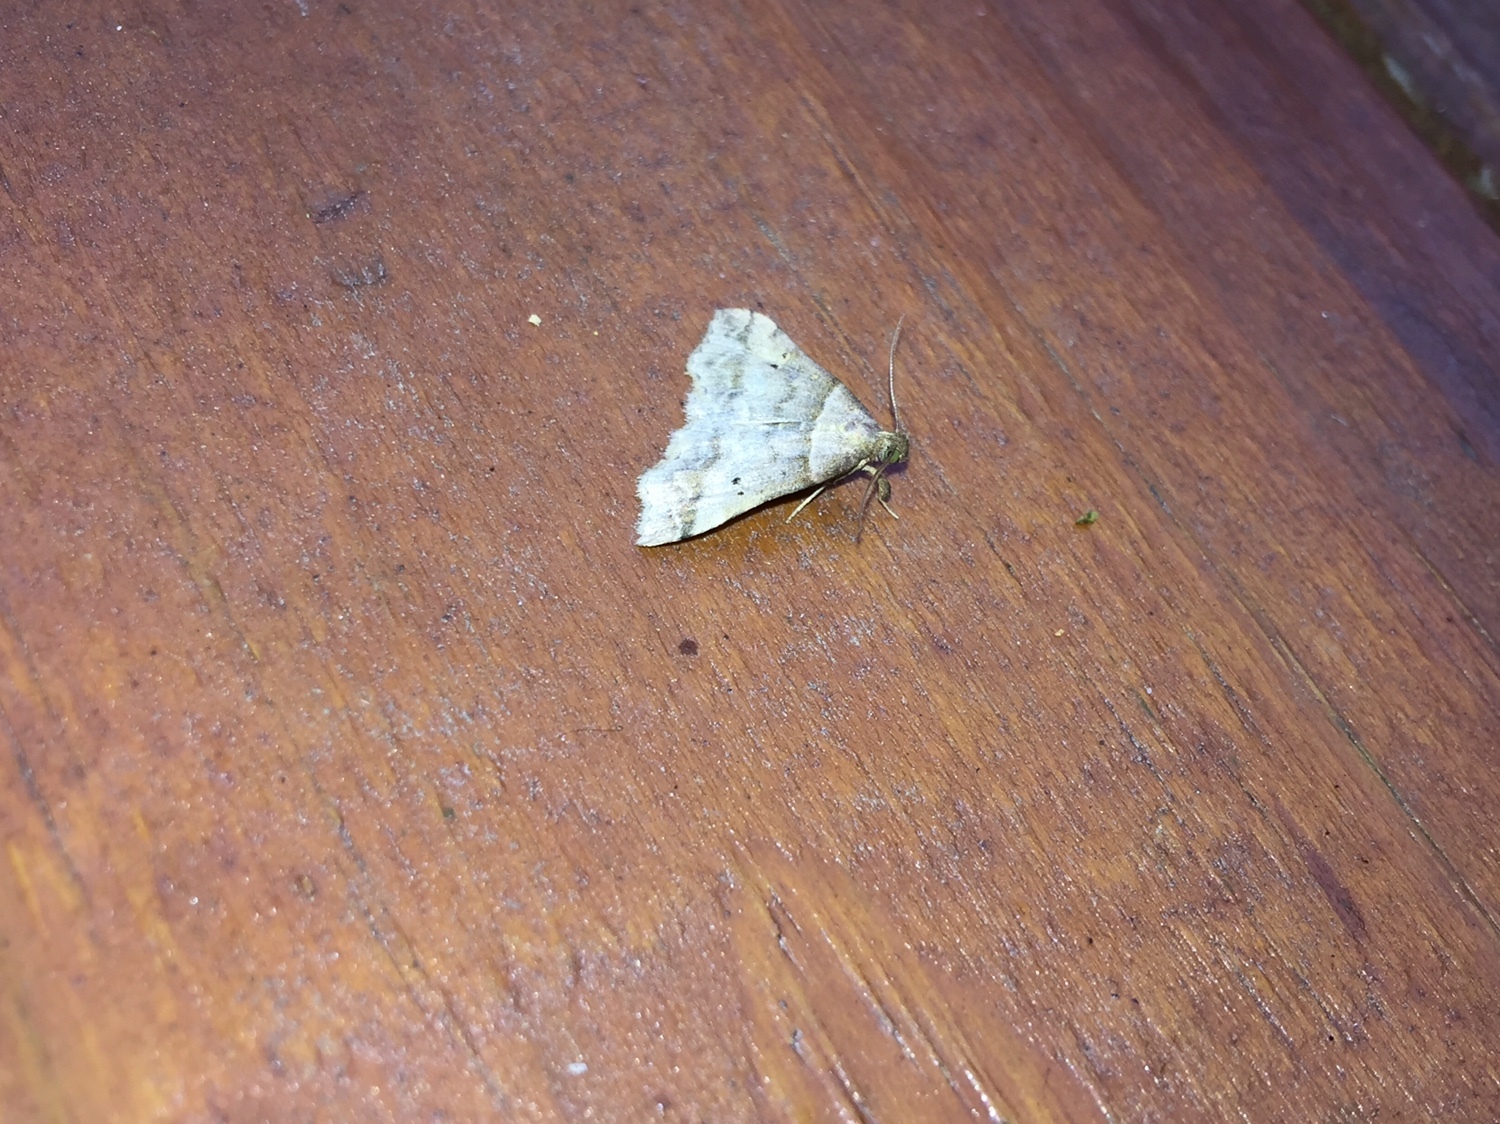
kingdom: Animalia
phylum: Arthropoda
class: Insecta
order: Lepidoptera
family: Erebidae
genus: Phaeolita
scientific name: Phaeolita pyramusalis
